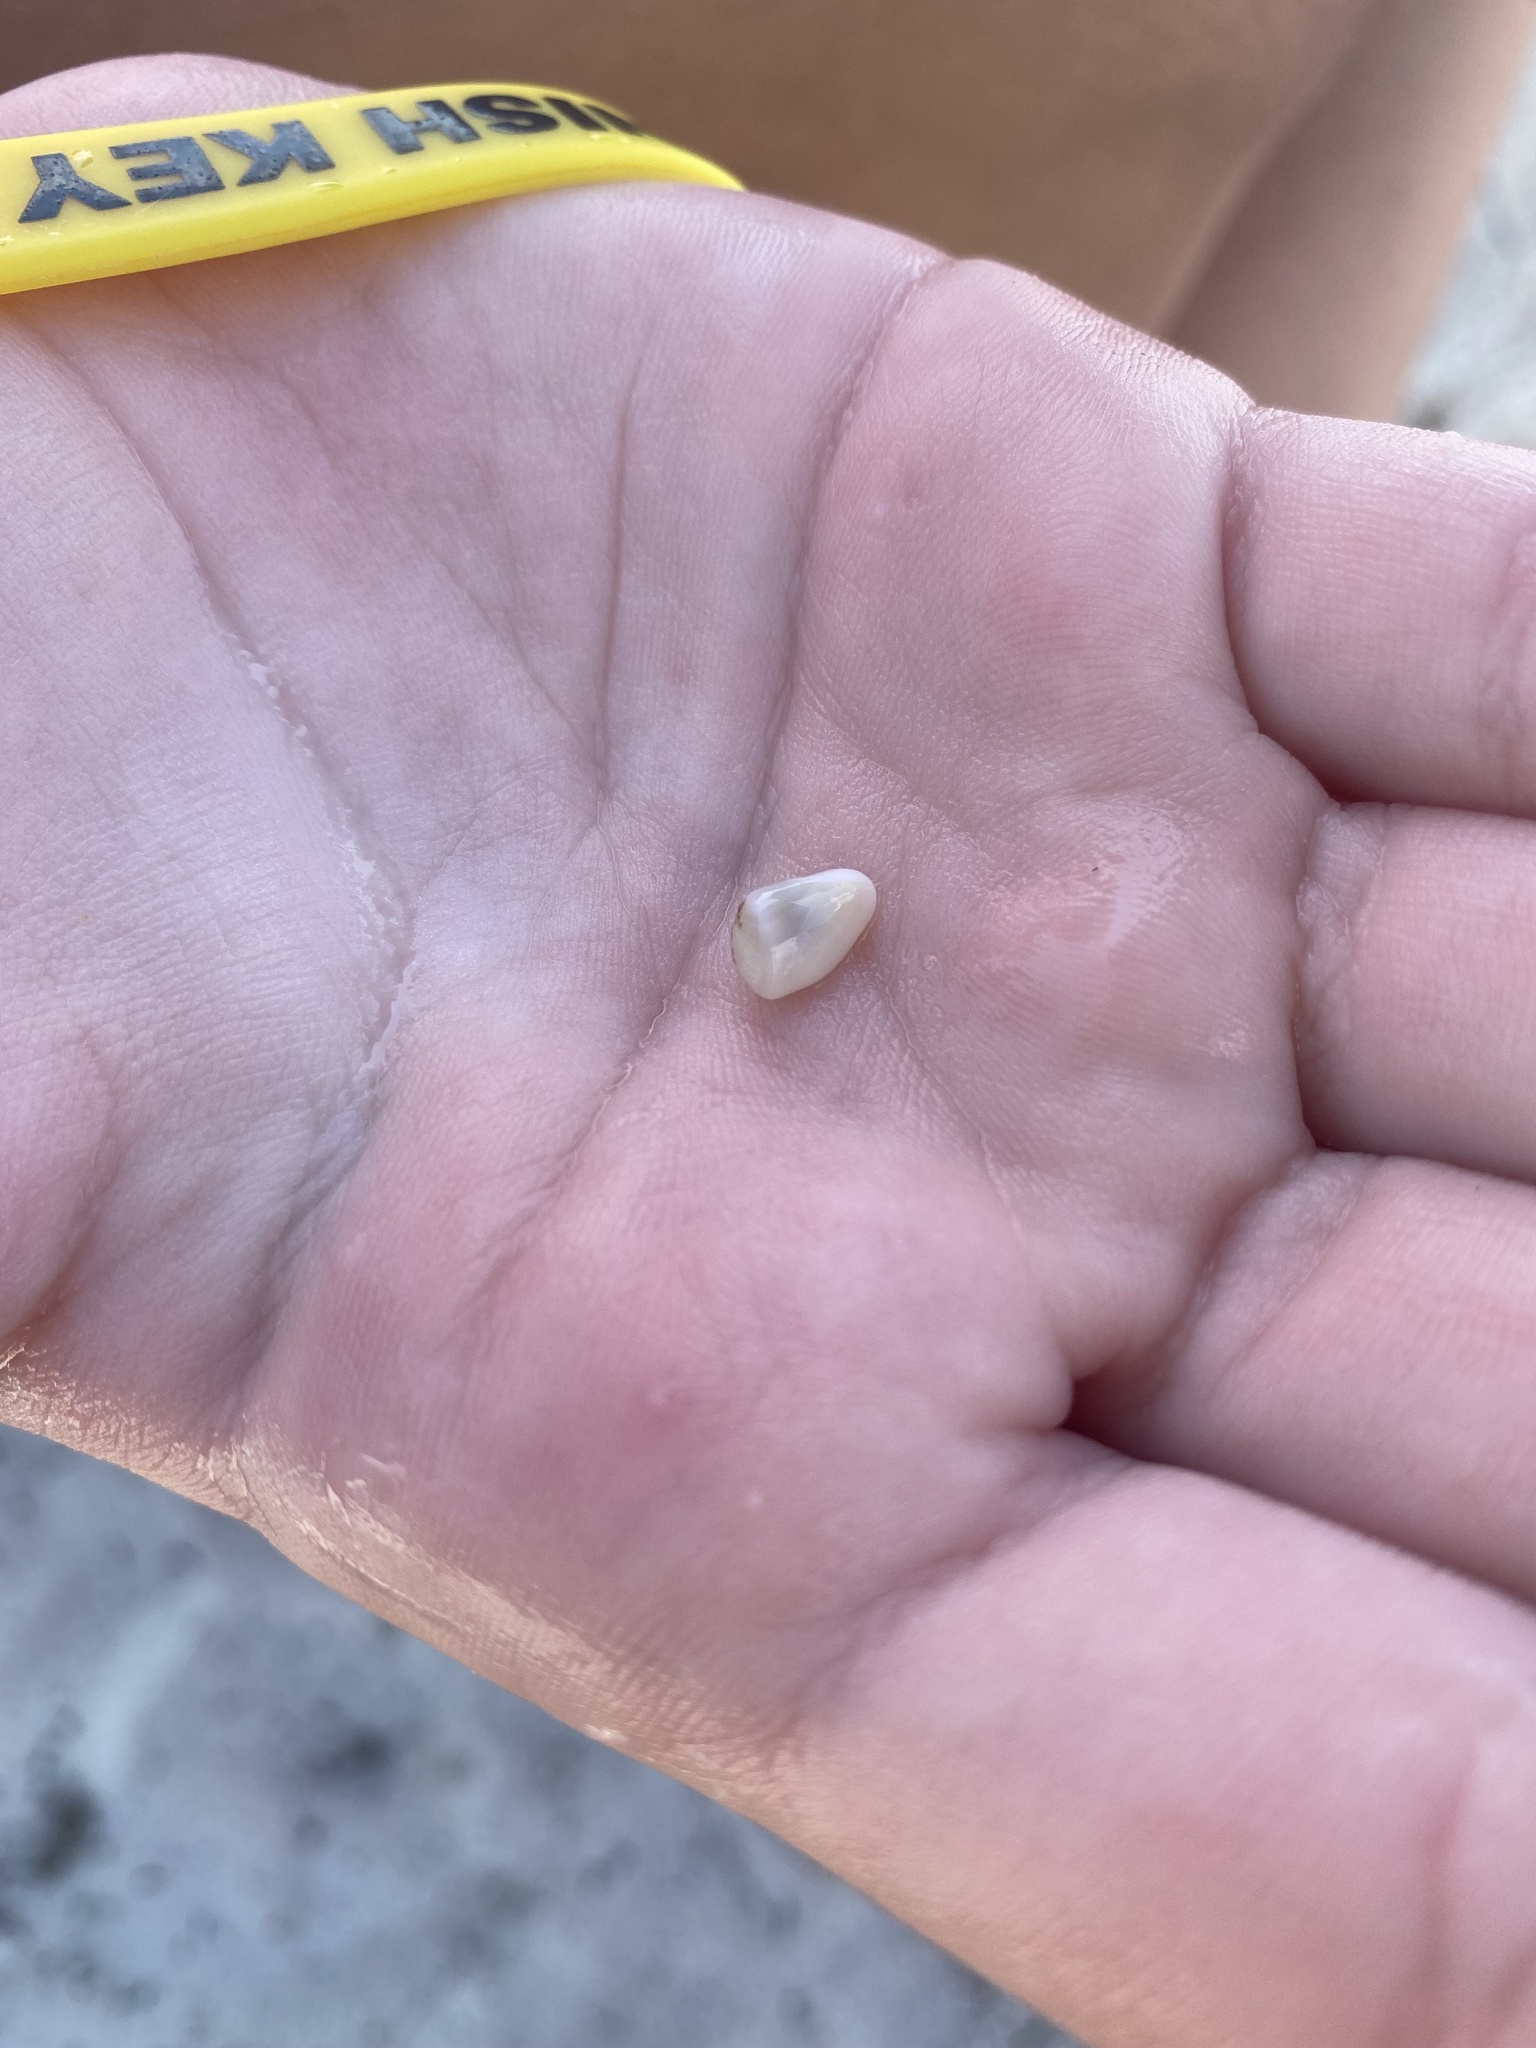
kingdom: Animalia
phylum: Mollusca
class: Bivalvia
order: Cardiida
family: Donacidae
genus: Donax
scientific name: Donax variabilis
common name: Butterfly shell
